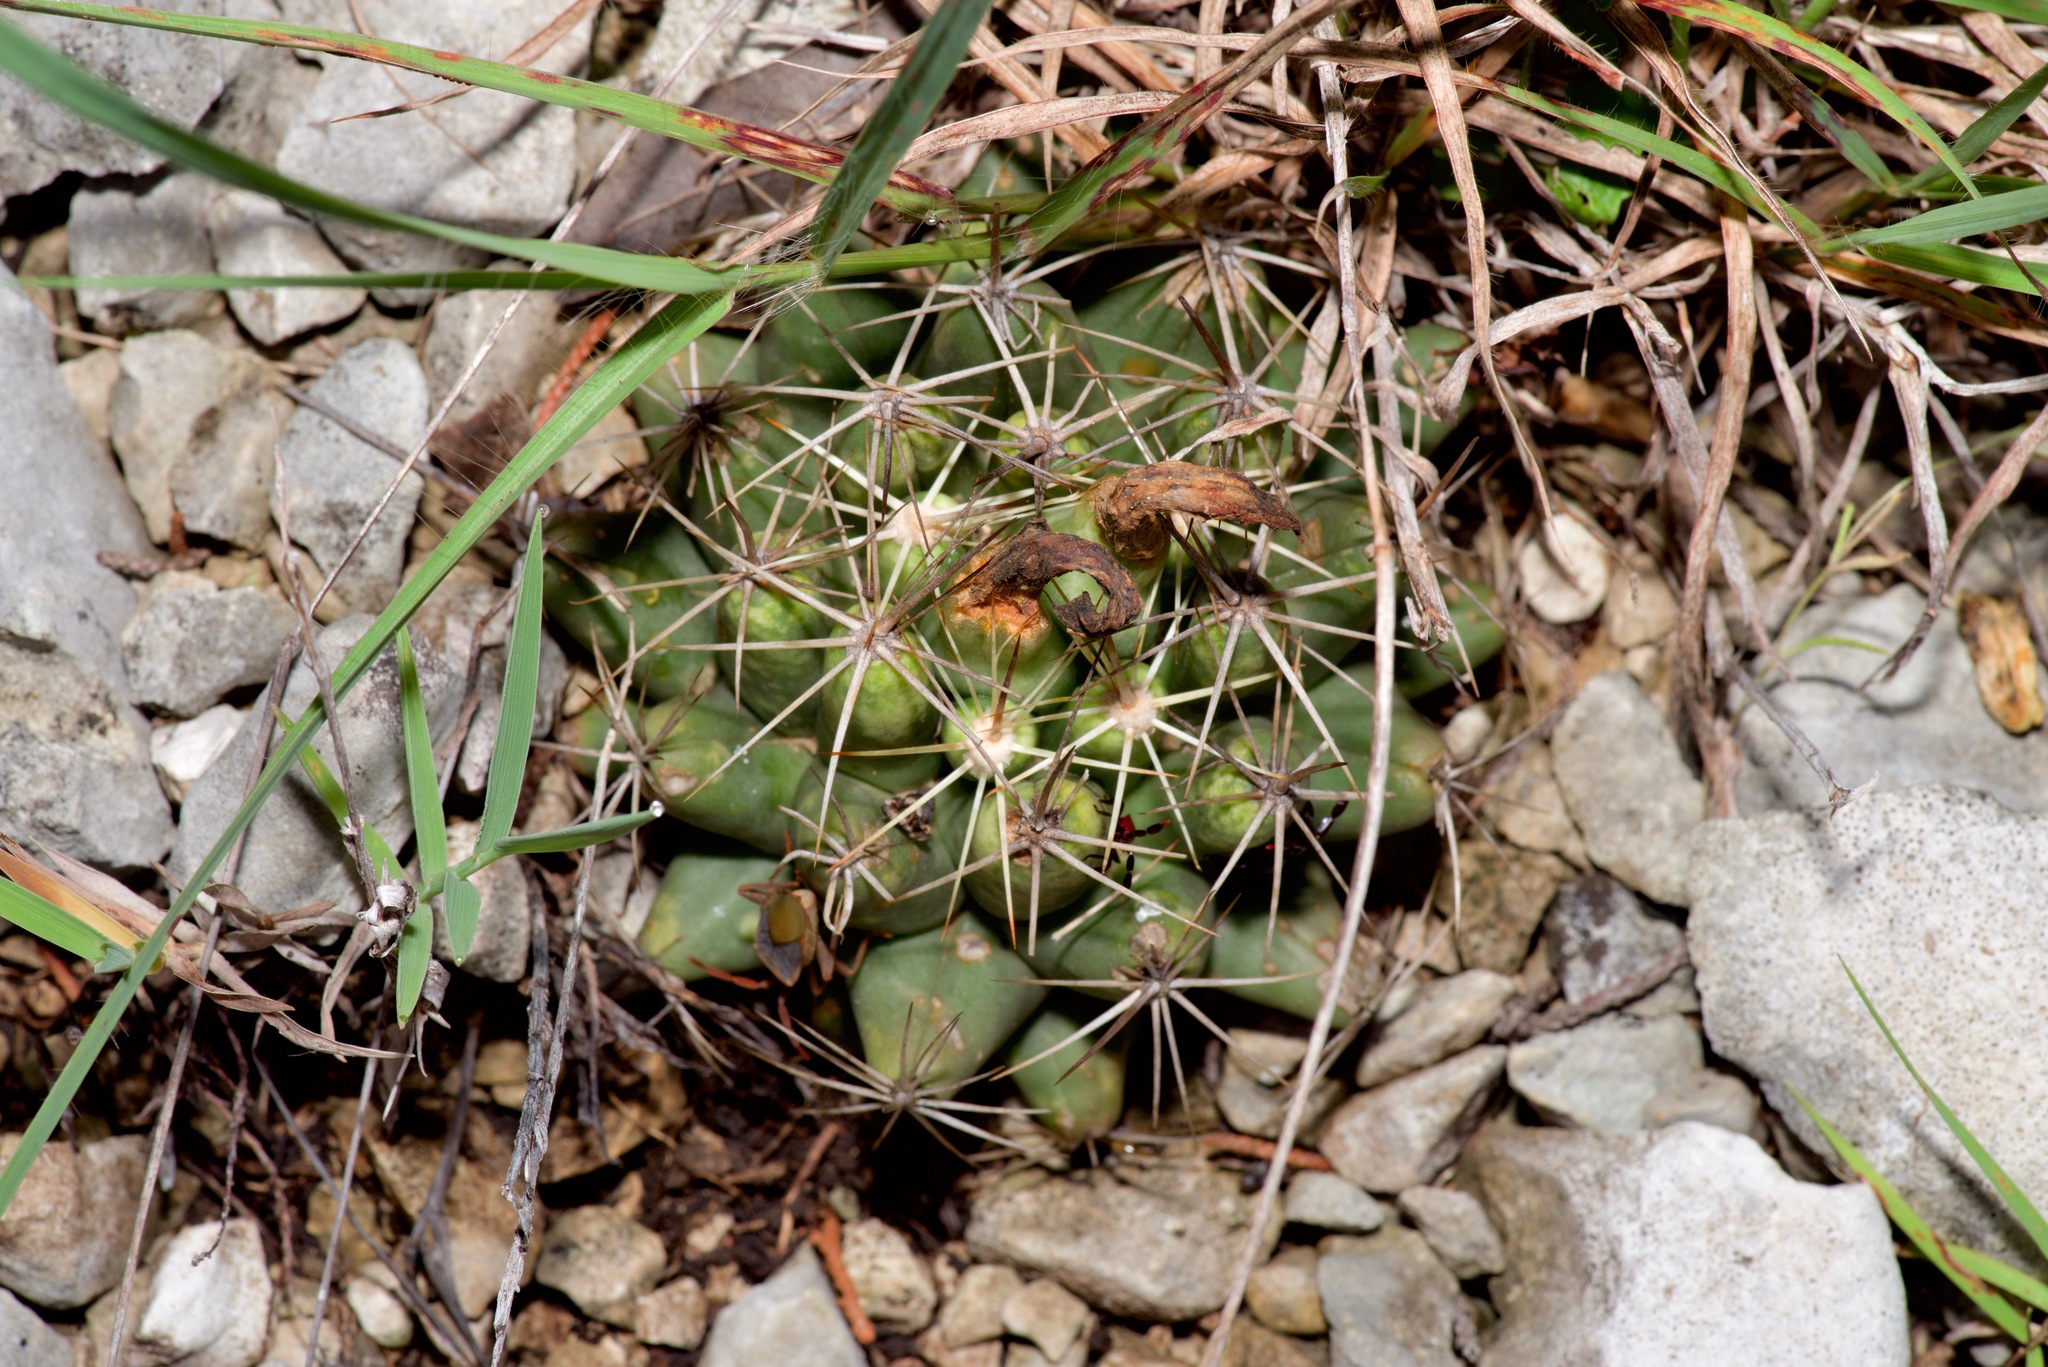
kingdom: Plantae
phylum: Tracheophyta
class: Magnoliopsida
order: Caryophyllales
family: Cactaceae
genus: Coryphantha
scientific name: Coryphantha sulcata
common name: Finger cactus
